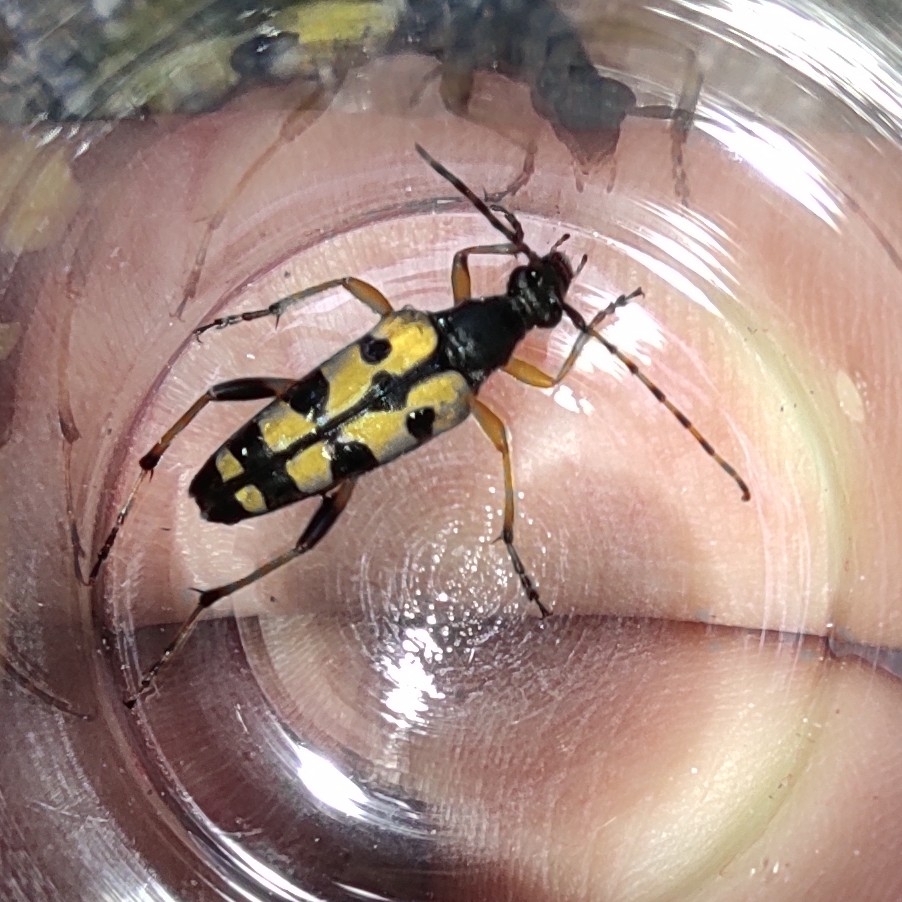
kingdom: Animalia
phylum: Arthropoda
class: Insecta
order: Coleoptera
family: Cerambycidae
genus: Rutpela
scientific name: Rutpela maculata
